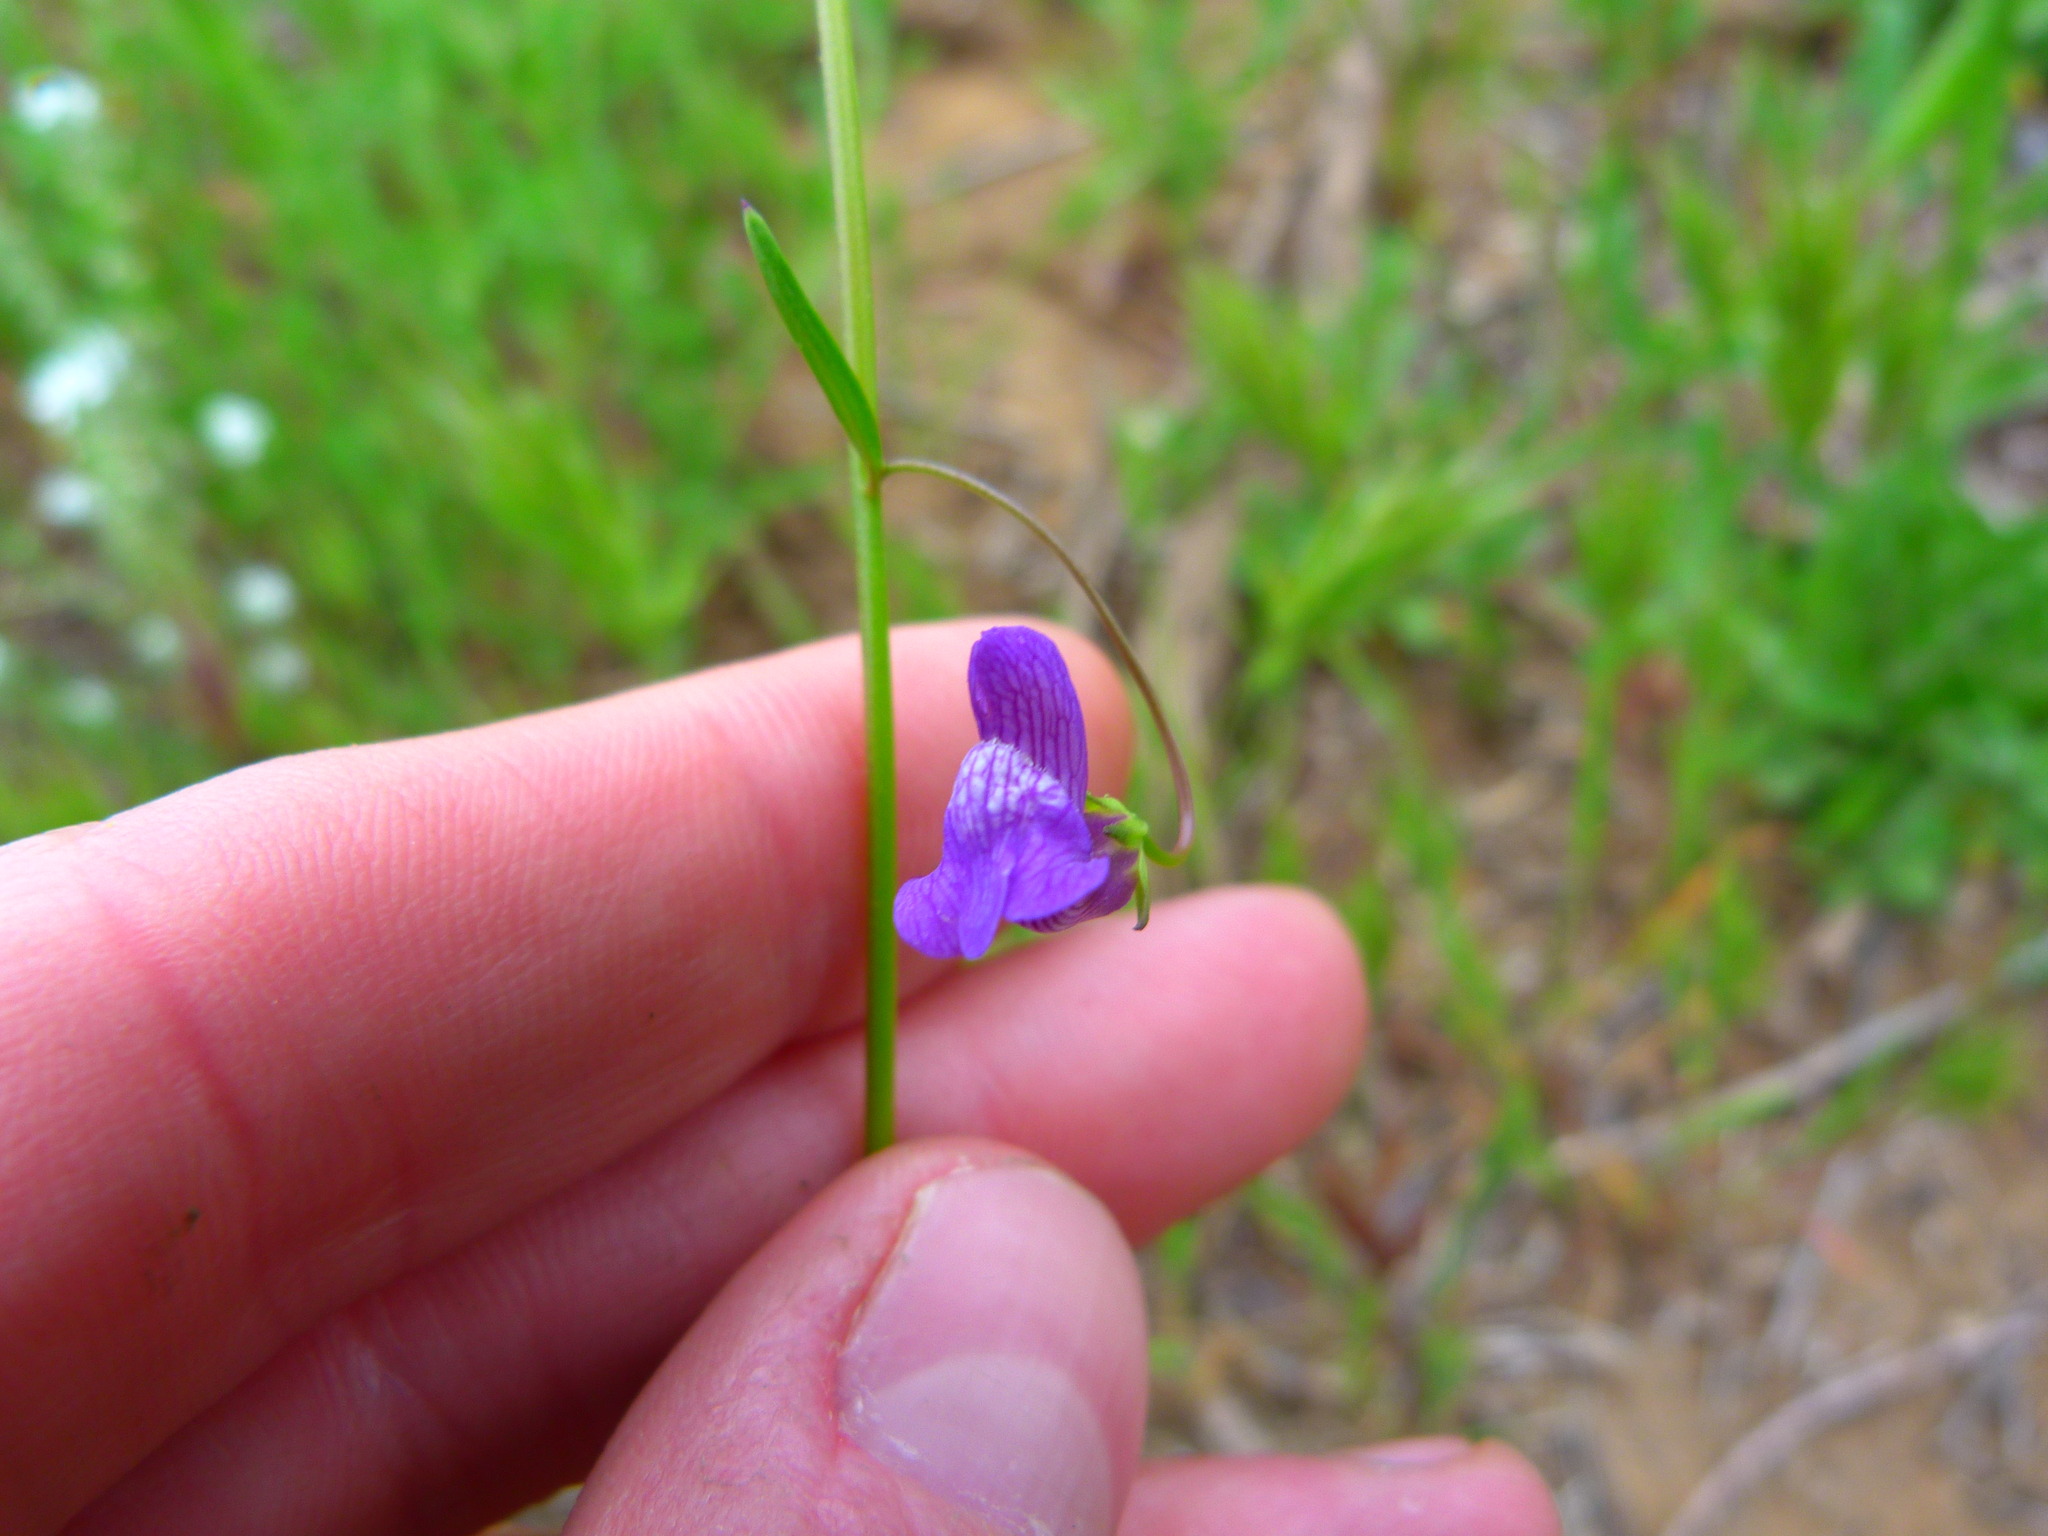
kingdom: Plantae
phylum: Tracheophyta
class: Magnoliopsida
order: Lamiales
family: Plantaginaceae
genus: Neogaerrhinum
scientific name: Neogaerrhinum strictum
